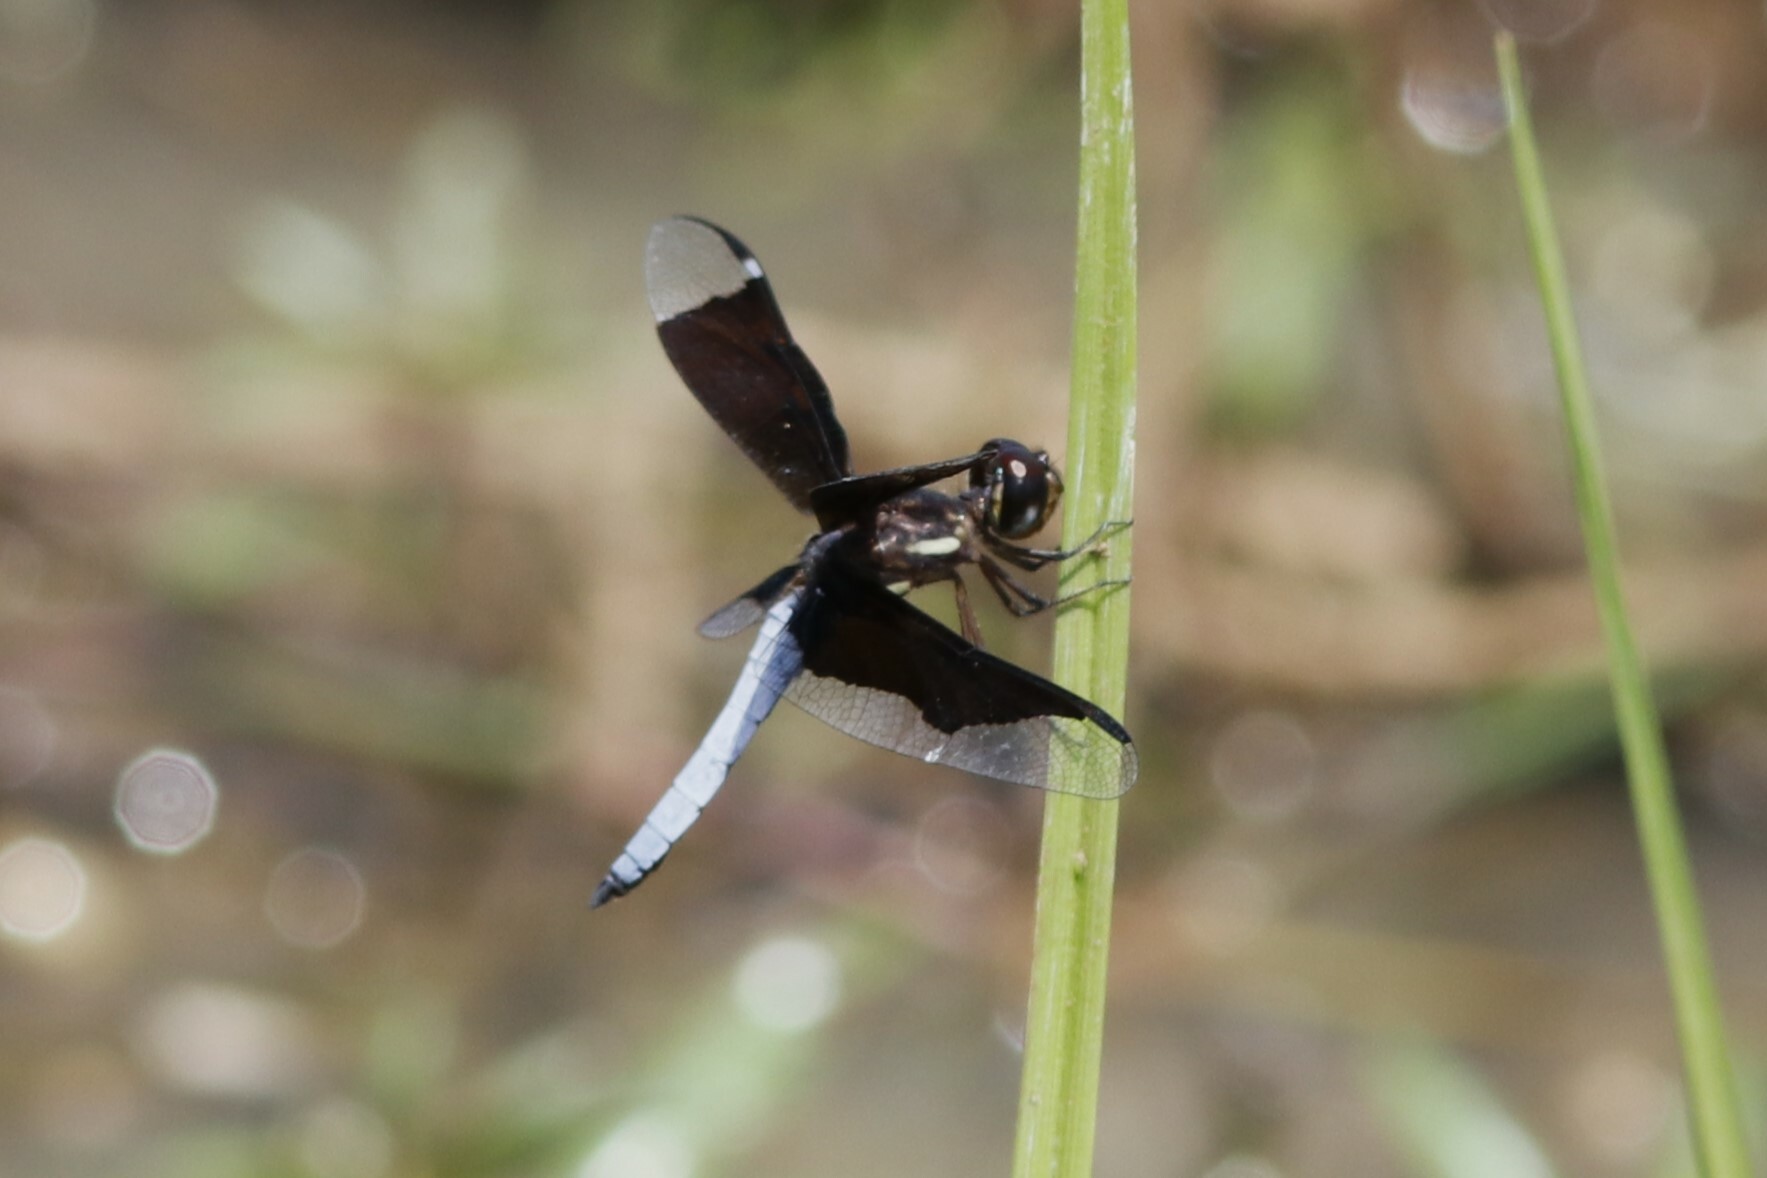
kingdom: Animalia
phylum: Arthropoda
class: Insecta
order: Odonata
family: Libellulidae
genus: Palpopleura
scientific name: Palpopleura lucia
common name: Lucia widow
